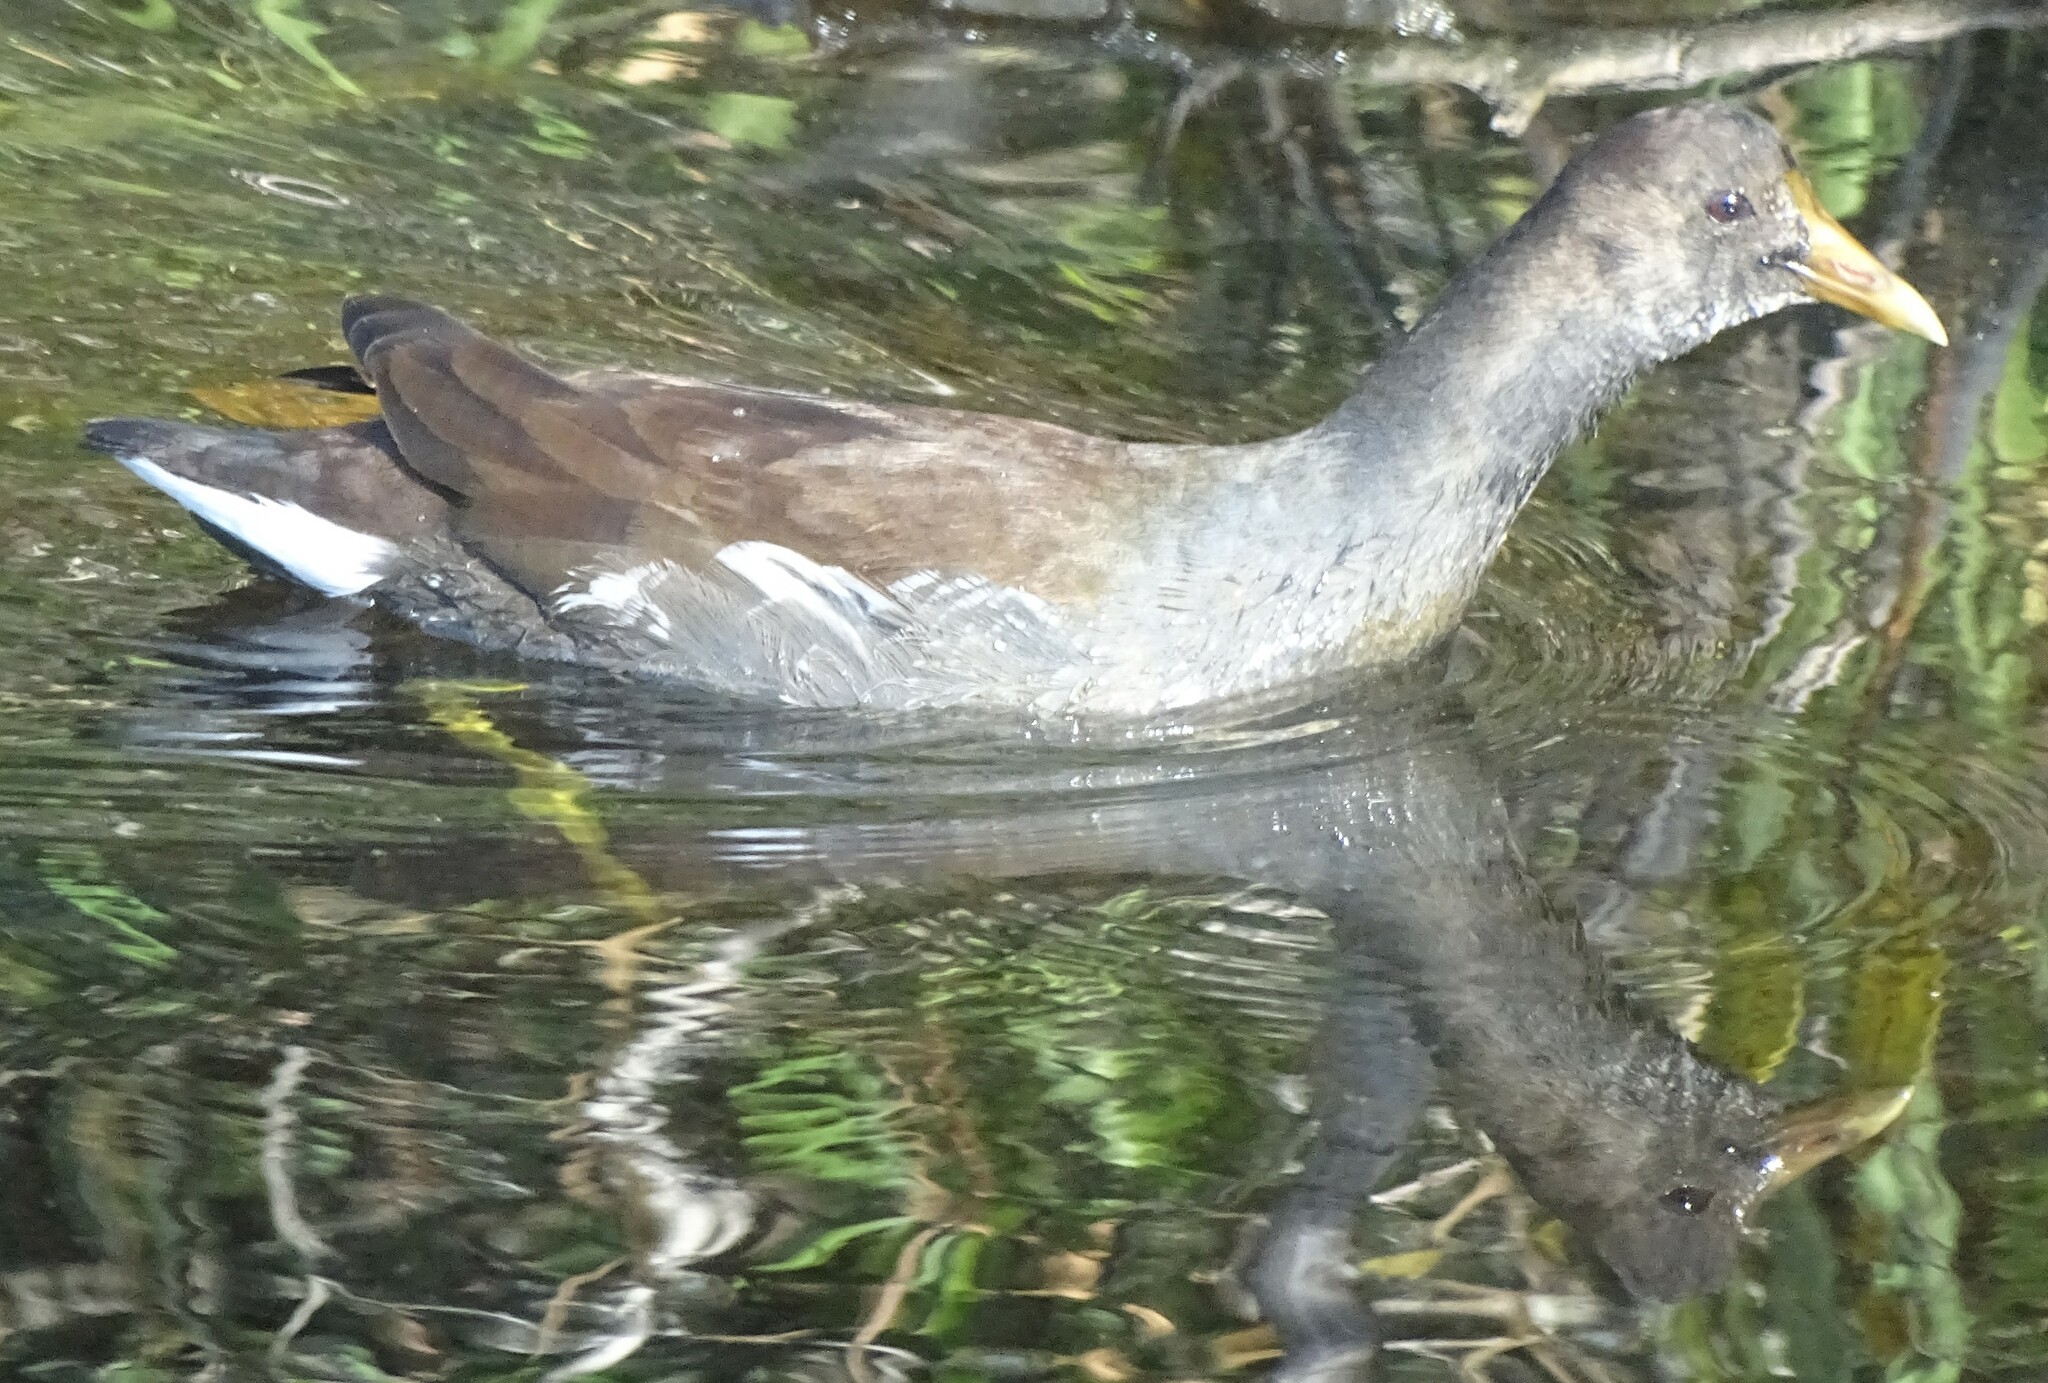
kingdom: Animalia
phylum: Chordata
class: Aves
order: Gruiformes
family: Rallidae
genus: Gallinula
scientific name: Gallinula chloropus
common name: Common moorhen
